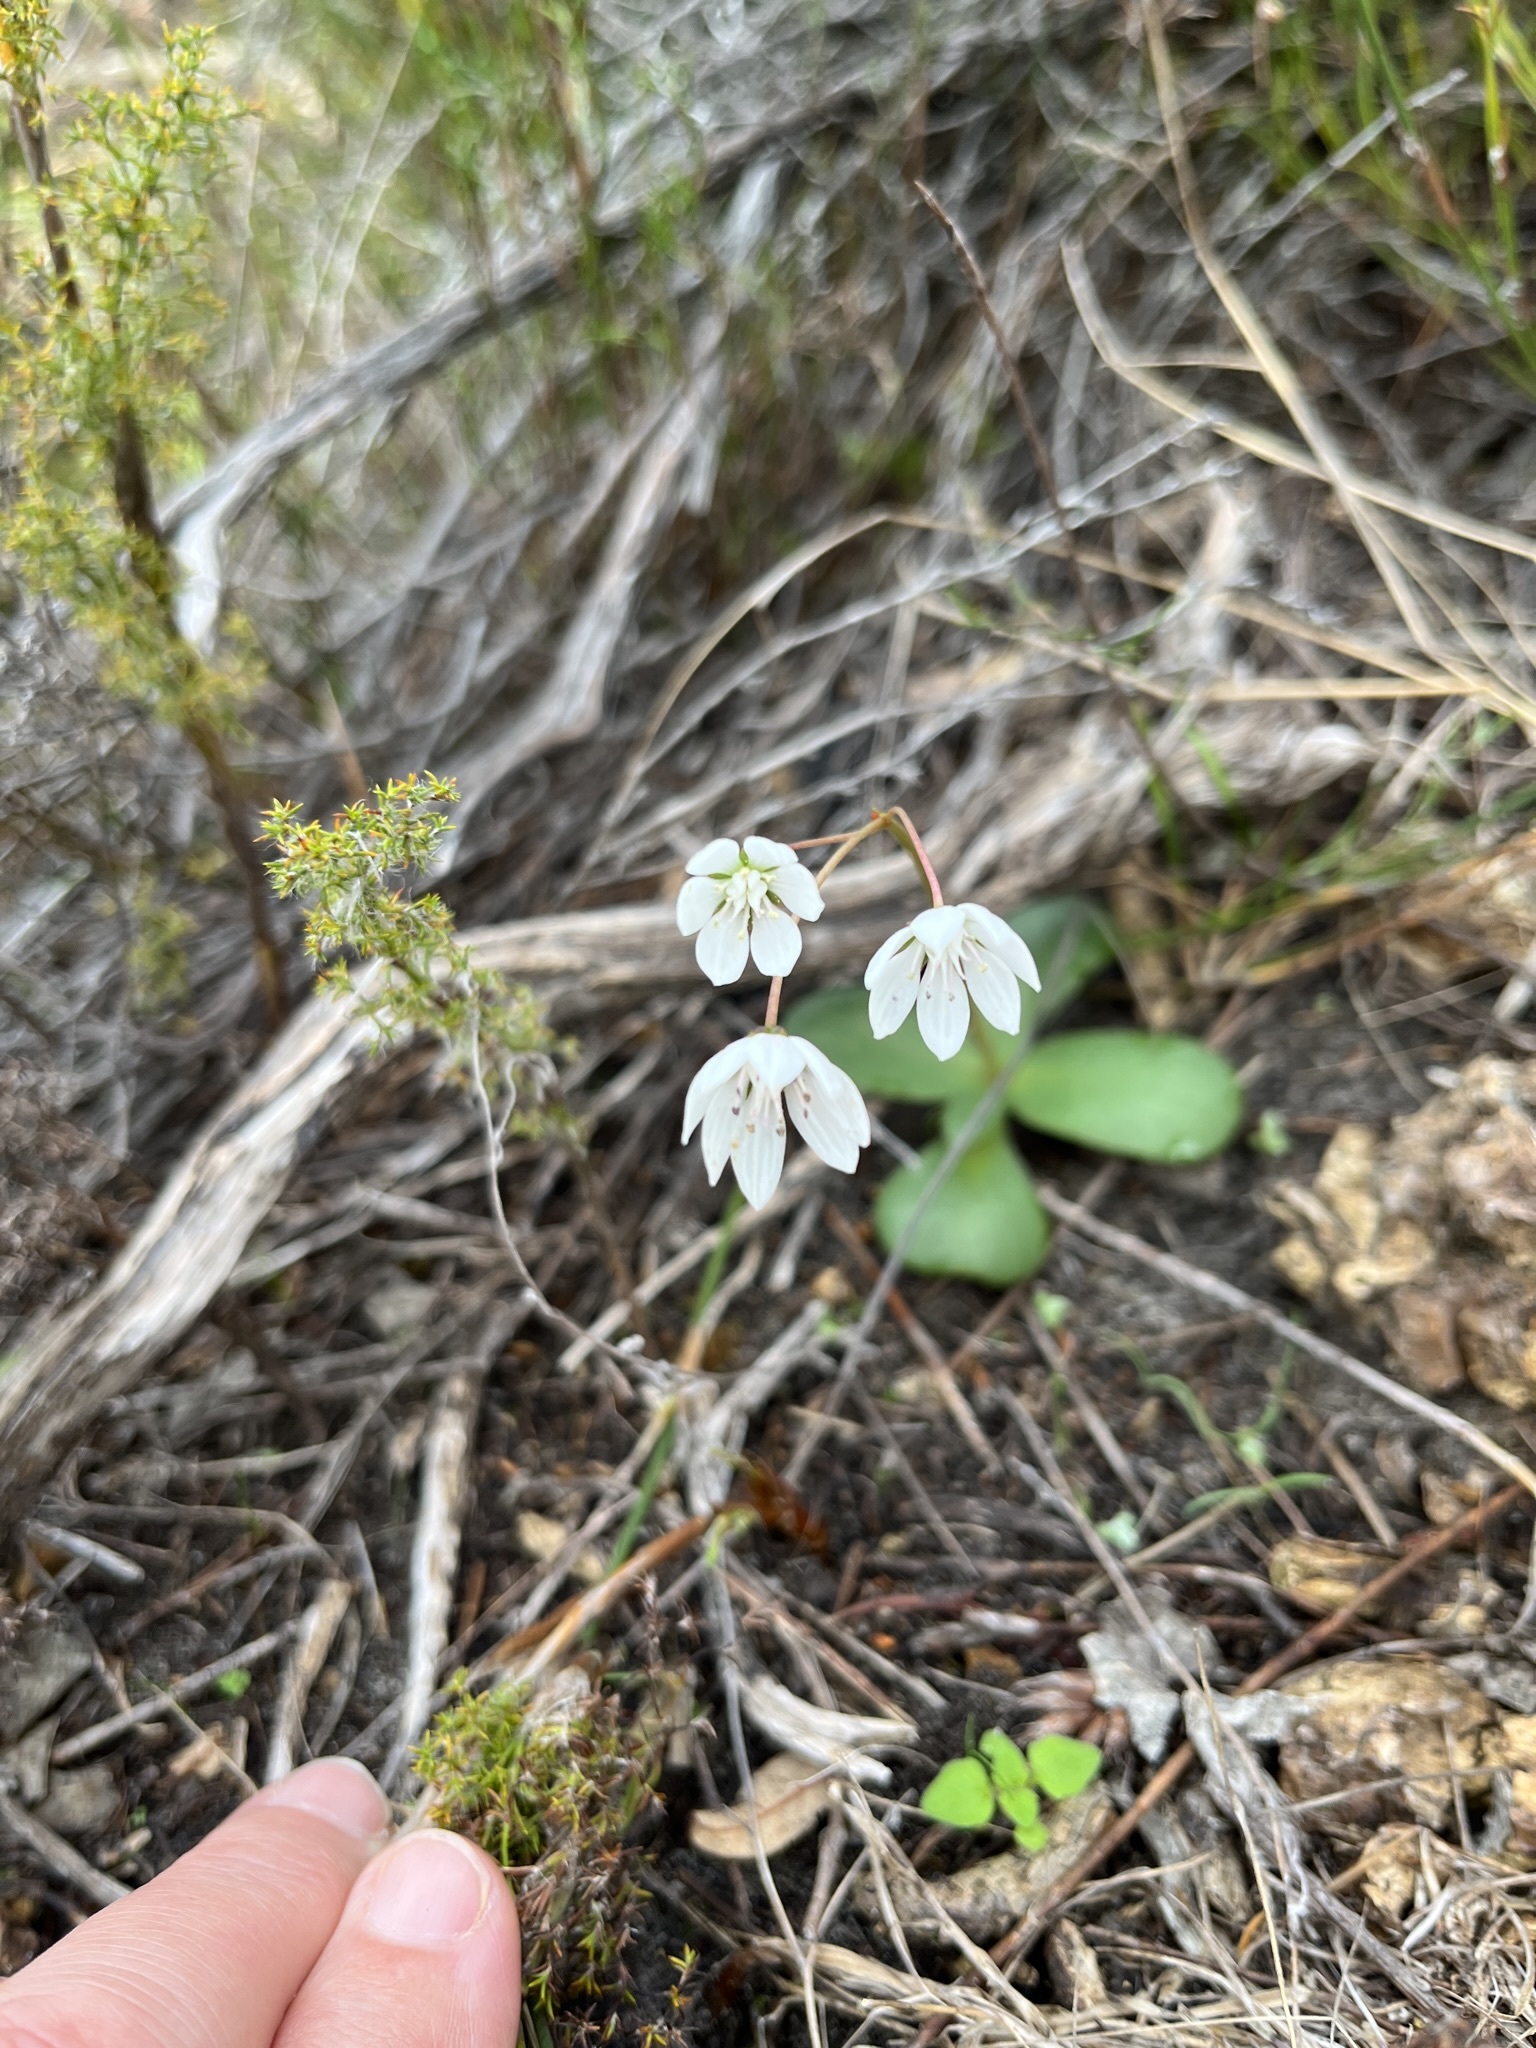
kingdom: Plantae
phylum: Tracheophyta
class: Magnoliopsida
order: Saxifragales
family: Crassulaceae
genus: Crassula
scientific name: Crassula capensis
